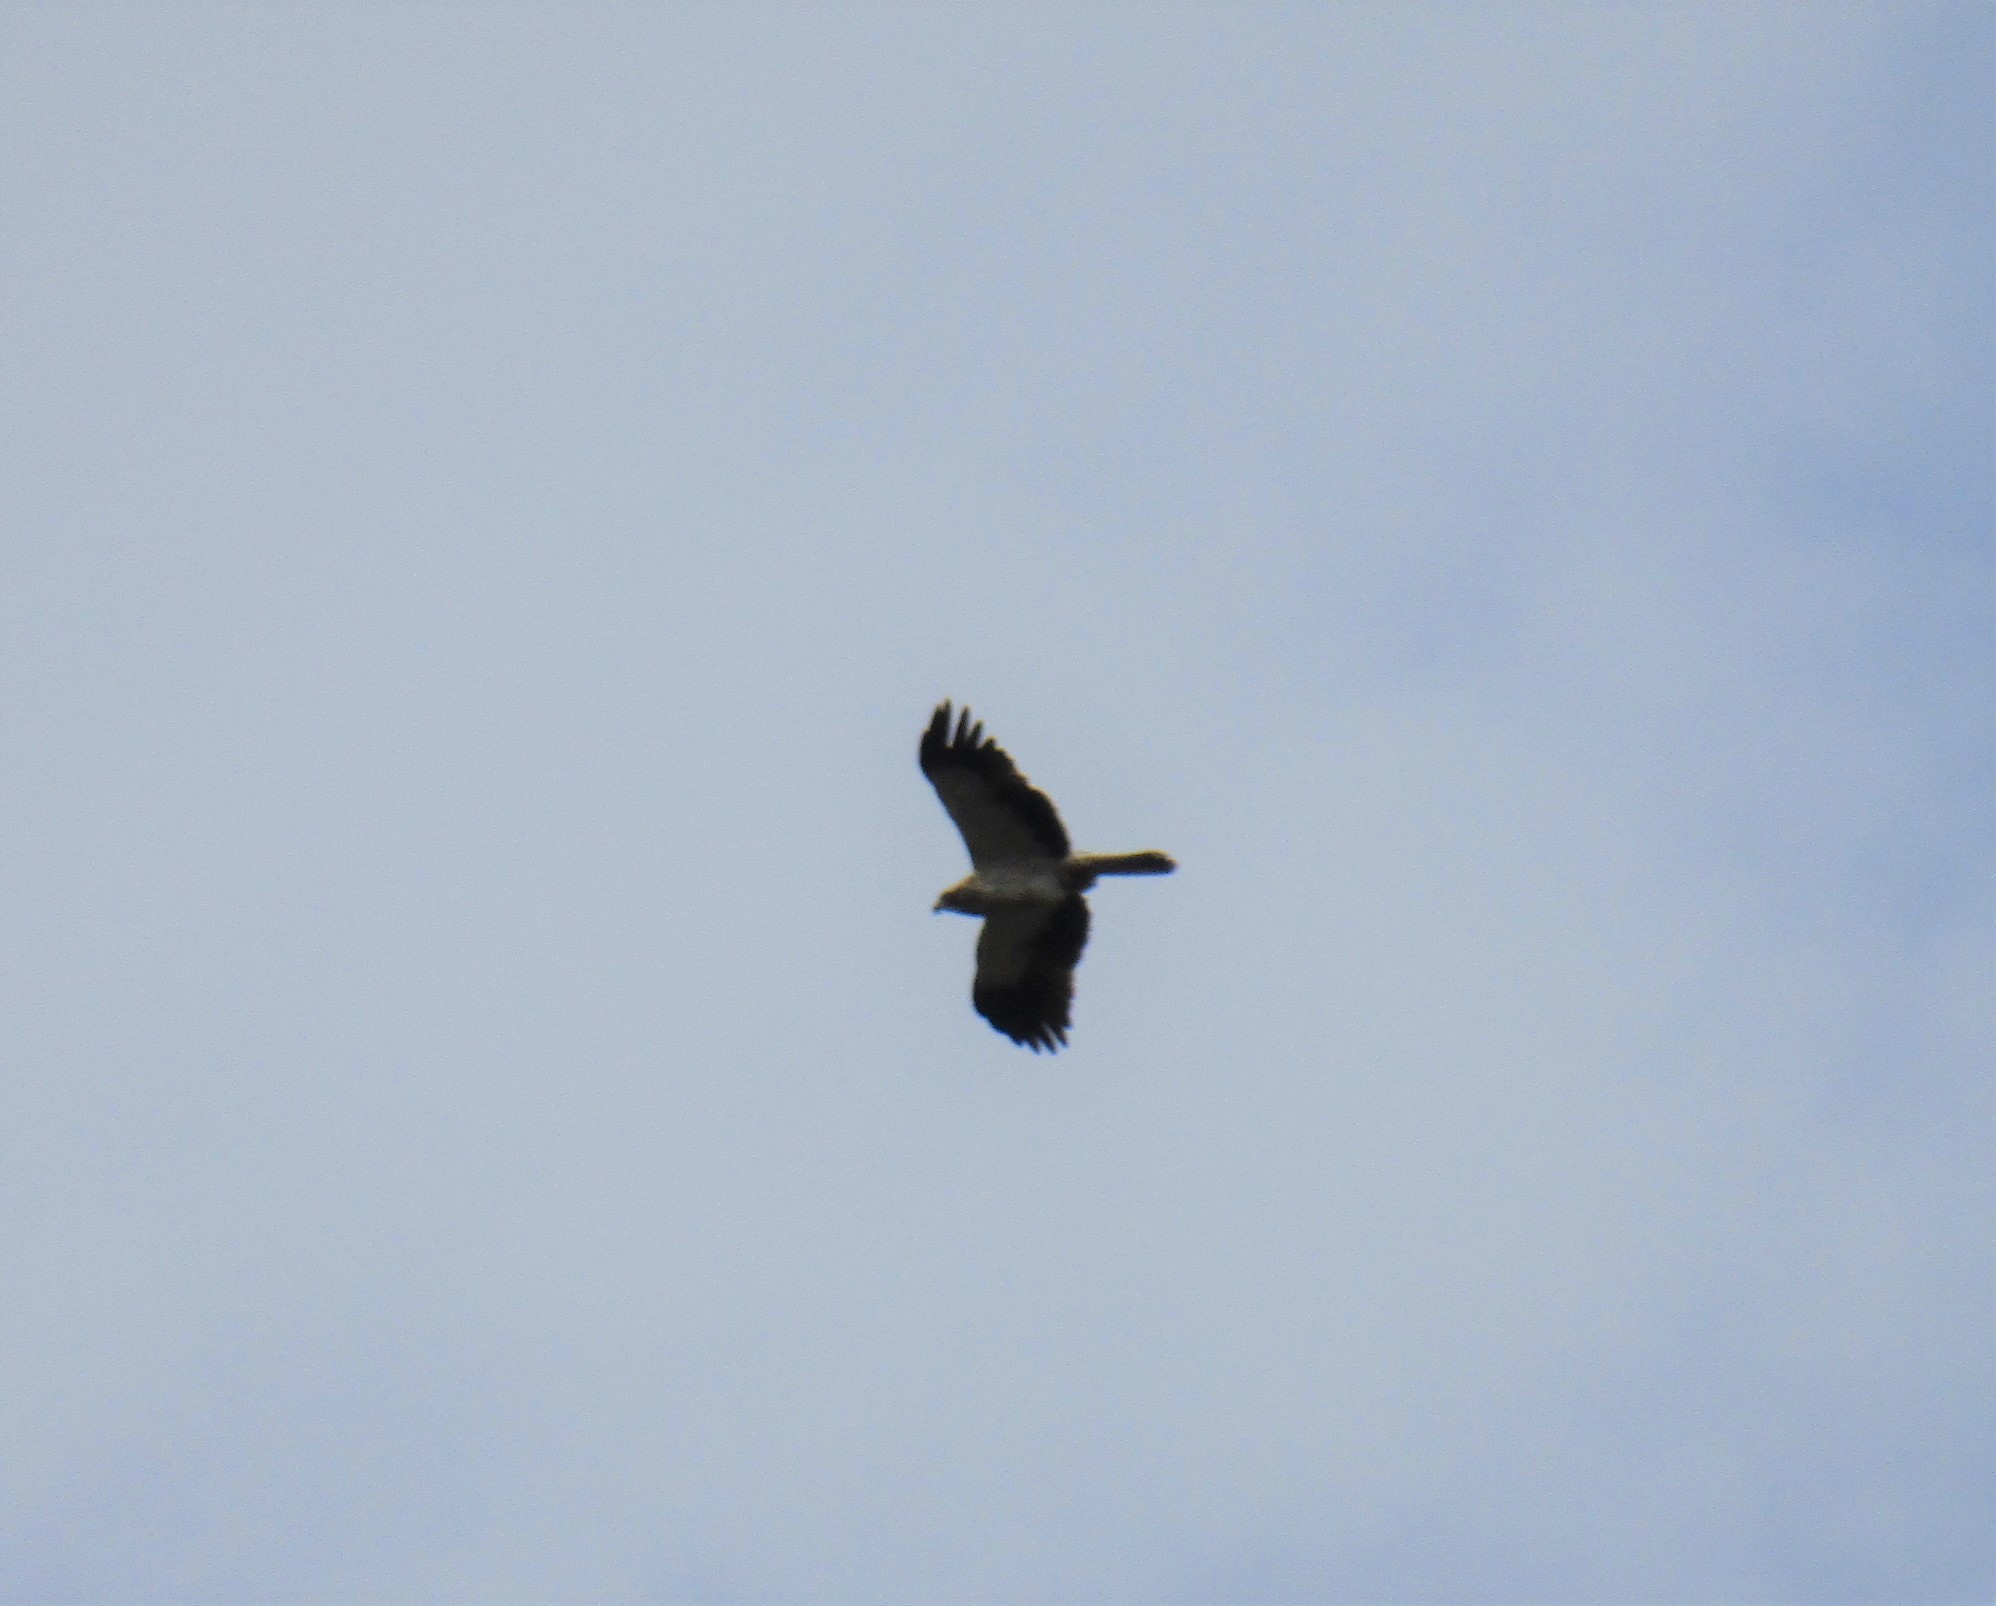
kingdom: Animalia
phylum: Chordata
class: Aves
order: Accipitriformes
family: Accipitridae
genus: Hieraaetus
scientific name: Hieraaetus pennatus
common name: Booted eagle
